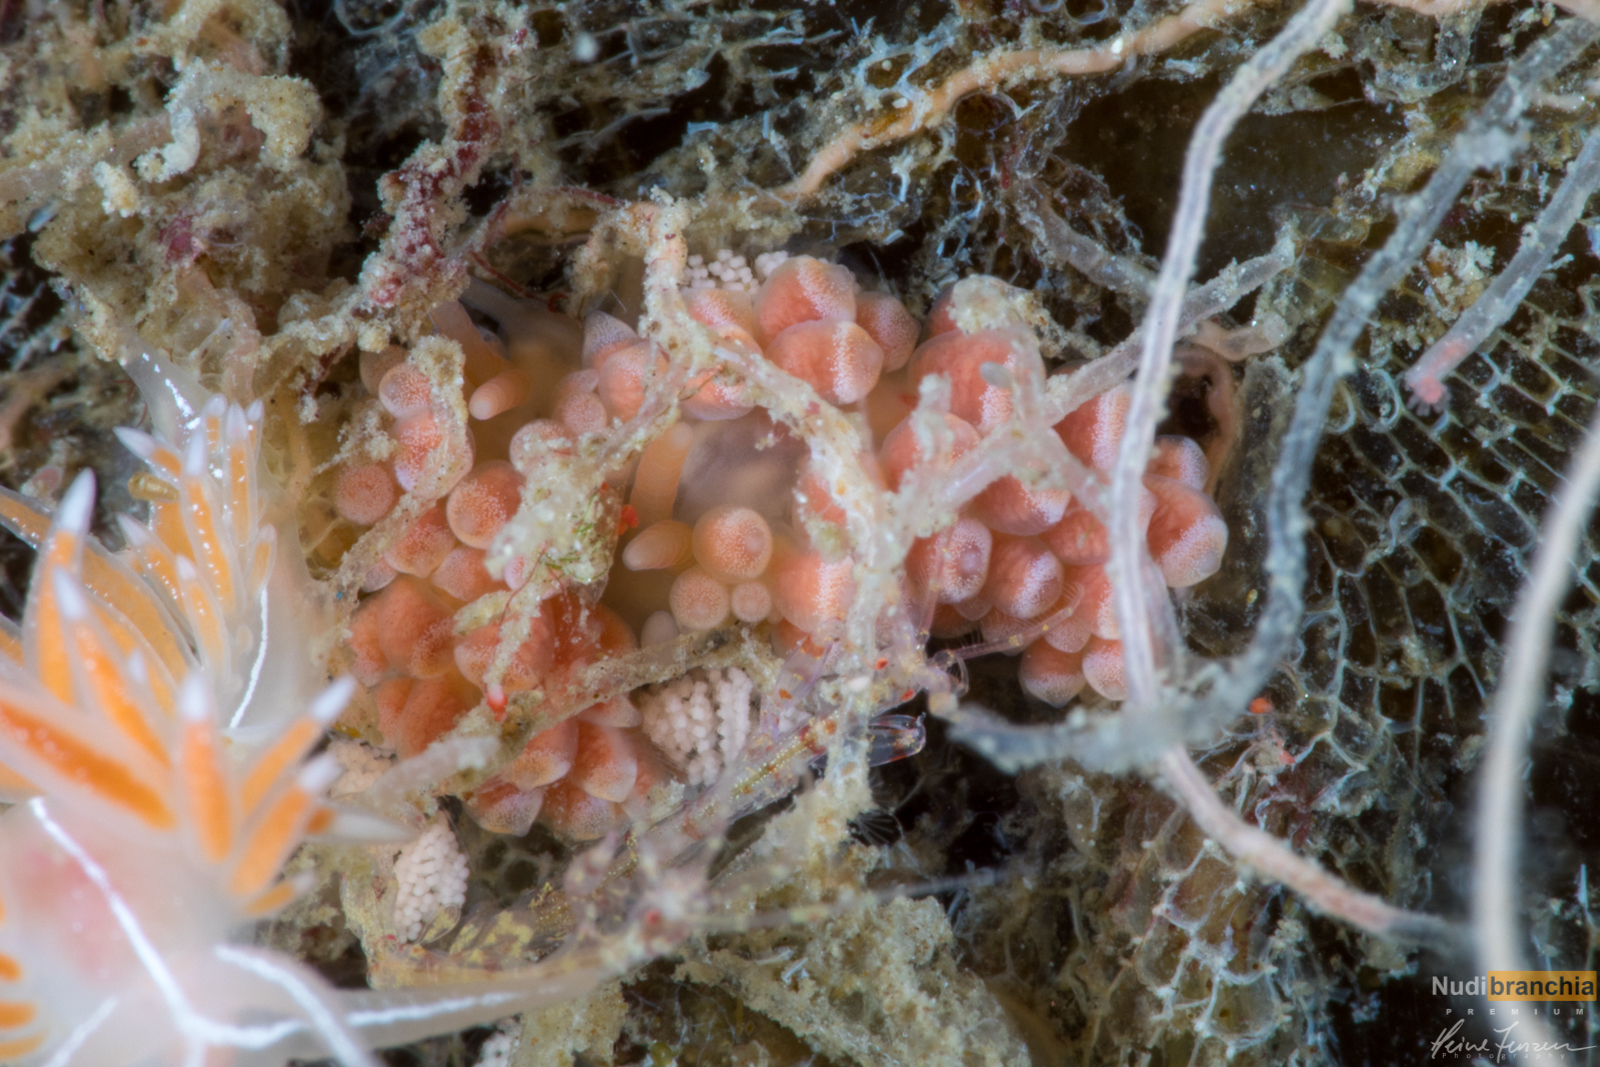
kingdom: Animalia
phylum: Mollusca
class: Gastropoda
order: Nudibranchia
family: Trinchesiidae
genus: Catriona
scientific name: Catriona aurantia
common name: Corange-tip cuthona
